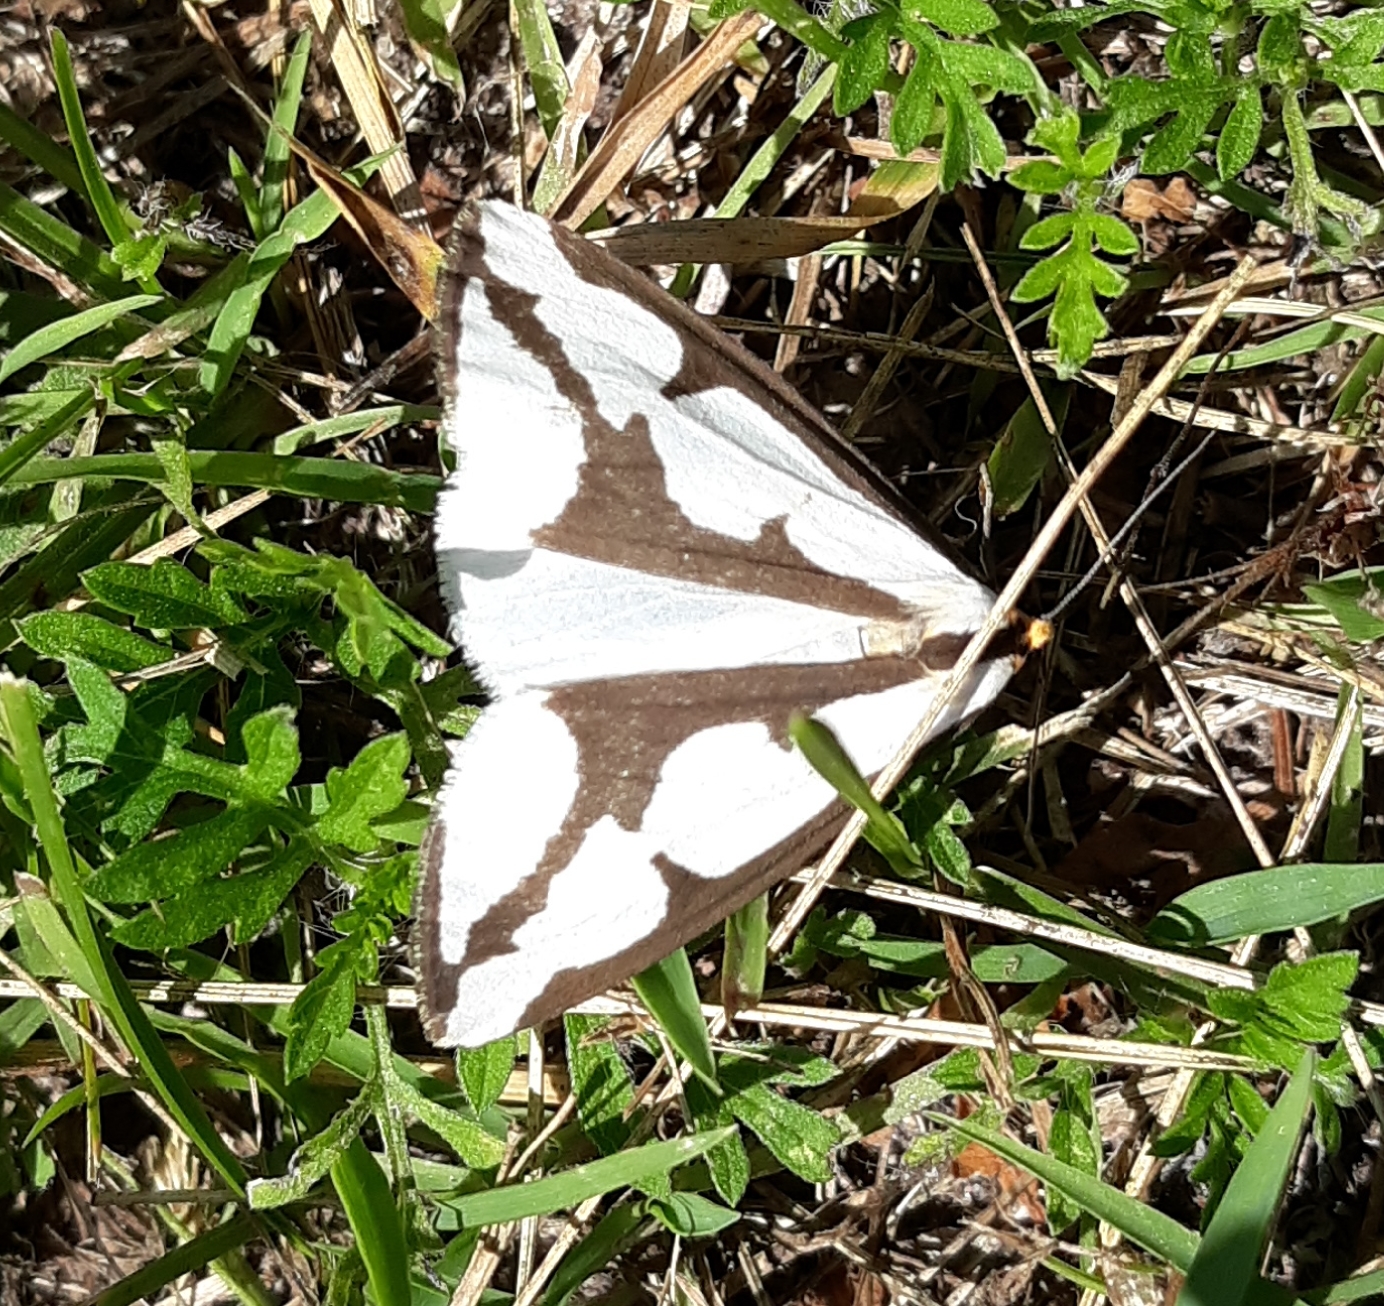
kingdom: Animalia
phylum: Arthropoda
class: Insecta
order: Lepidoptera
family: Erebidae
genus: Haploa
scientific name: Haploa lecontei
